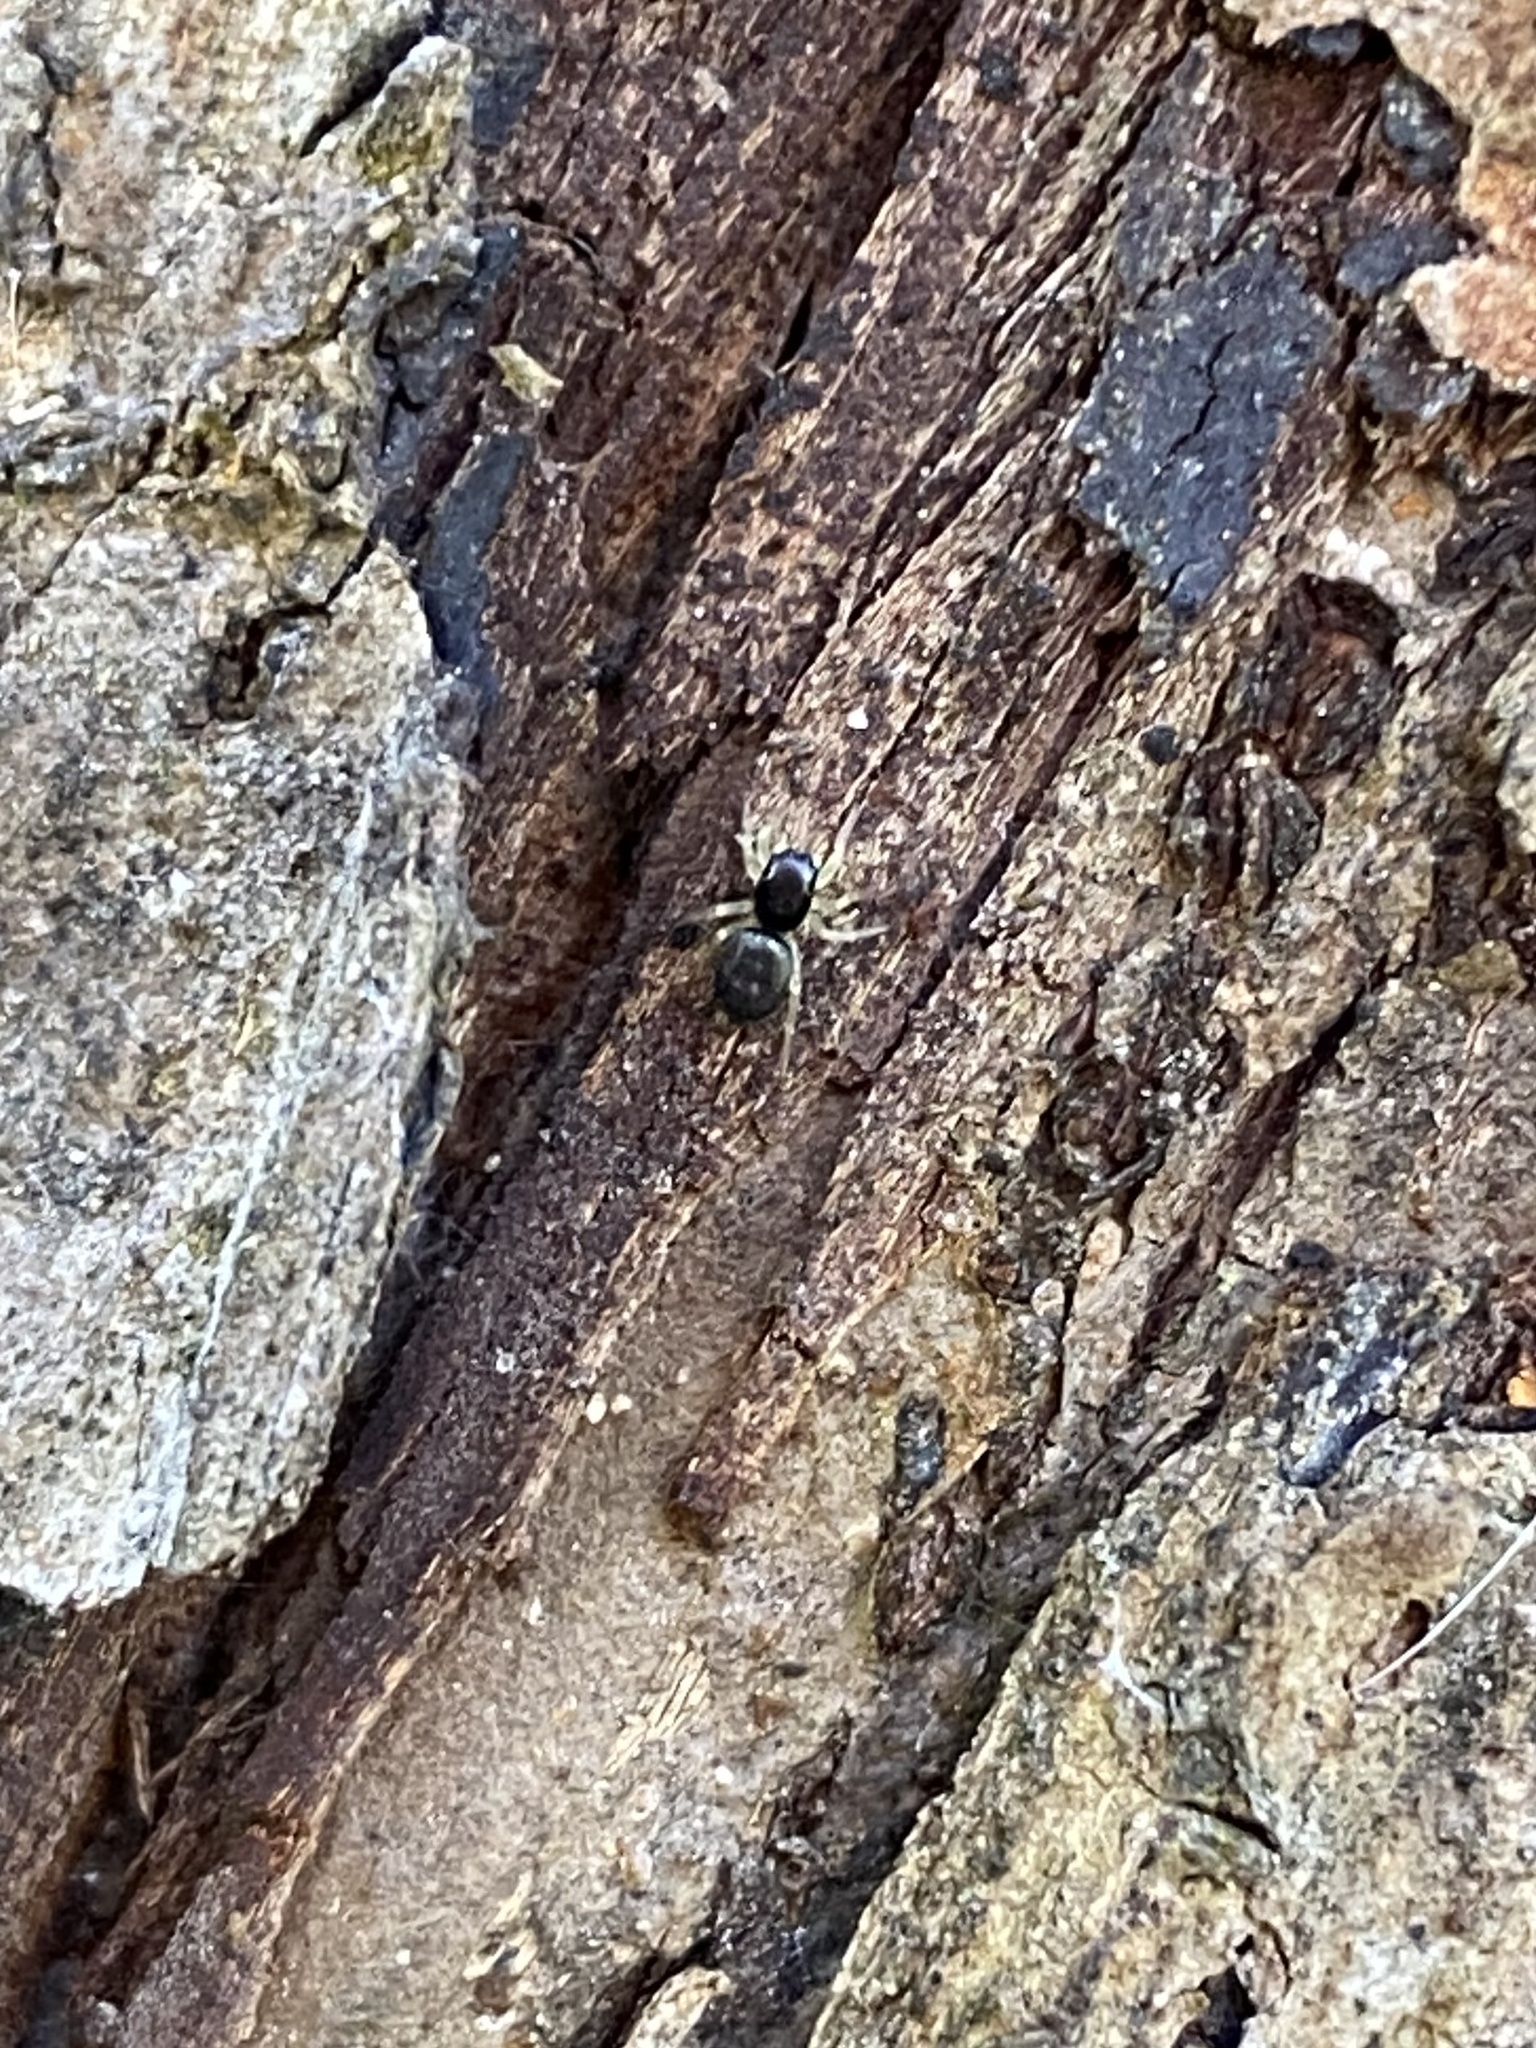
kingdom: Animalia
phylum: Arthropoda
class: Arachnida
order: Araneae
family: Salticidae
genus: Heliophanus
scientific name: Heliophanus
